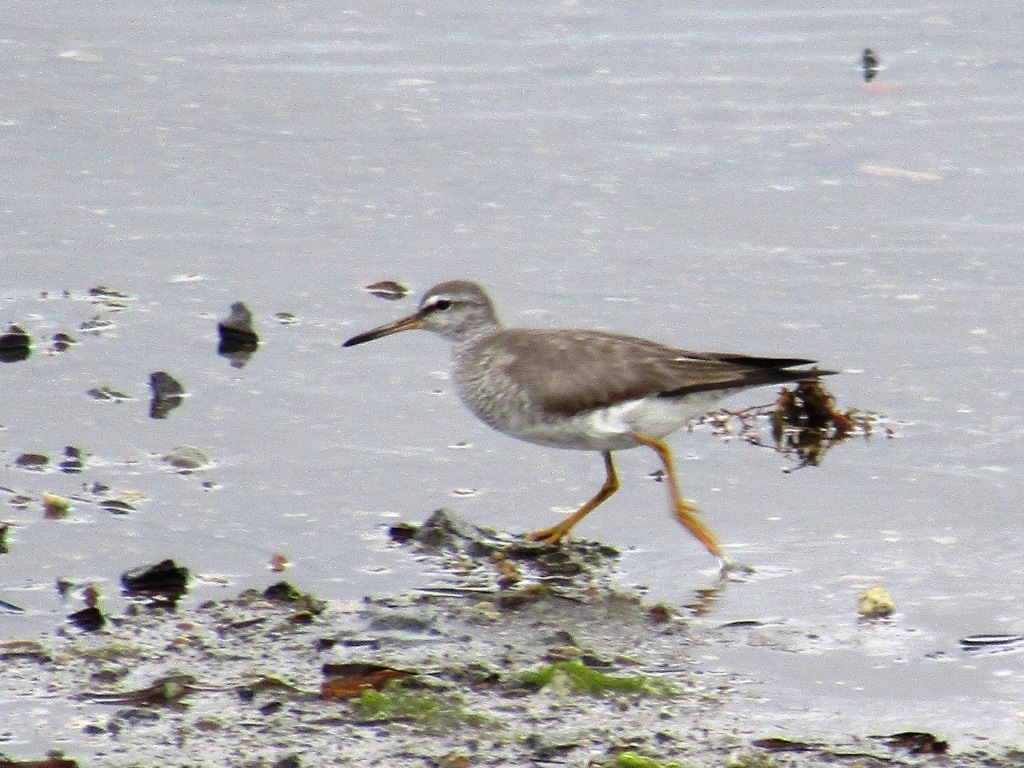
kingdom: Animalia
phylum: Chordata
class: Aves
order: Charadriiformes
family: Scolopacidae
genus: Tringa
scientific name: Tringa brevipes
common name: Grey-tailed tattler
